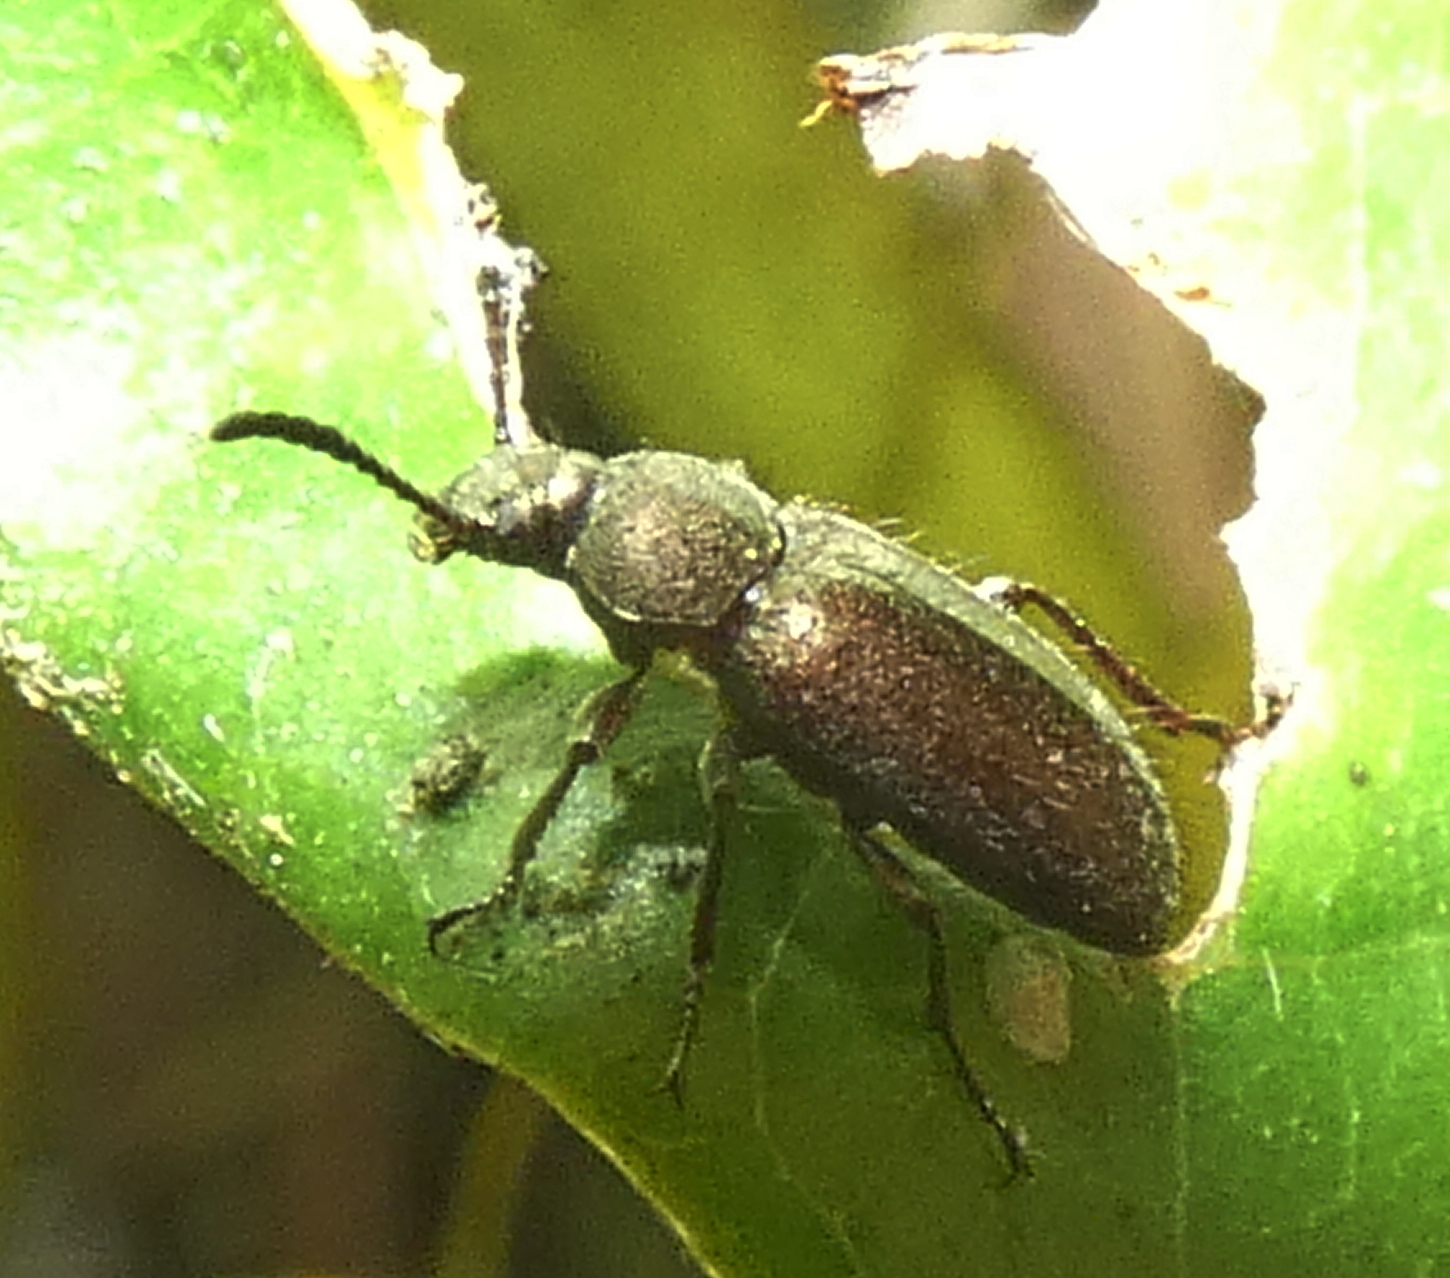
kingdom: Animalia
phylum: Arthropoda
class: Insecta
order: Coleoptera
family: Tenebrionidae
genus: Lagria
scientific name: Lagria villosa
